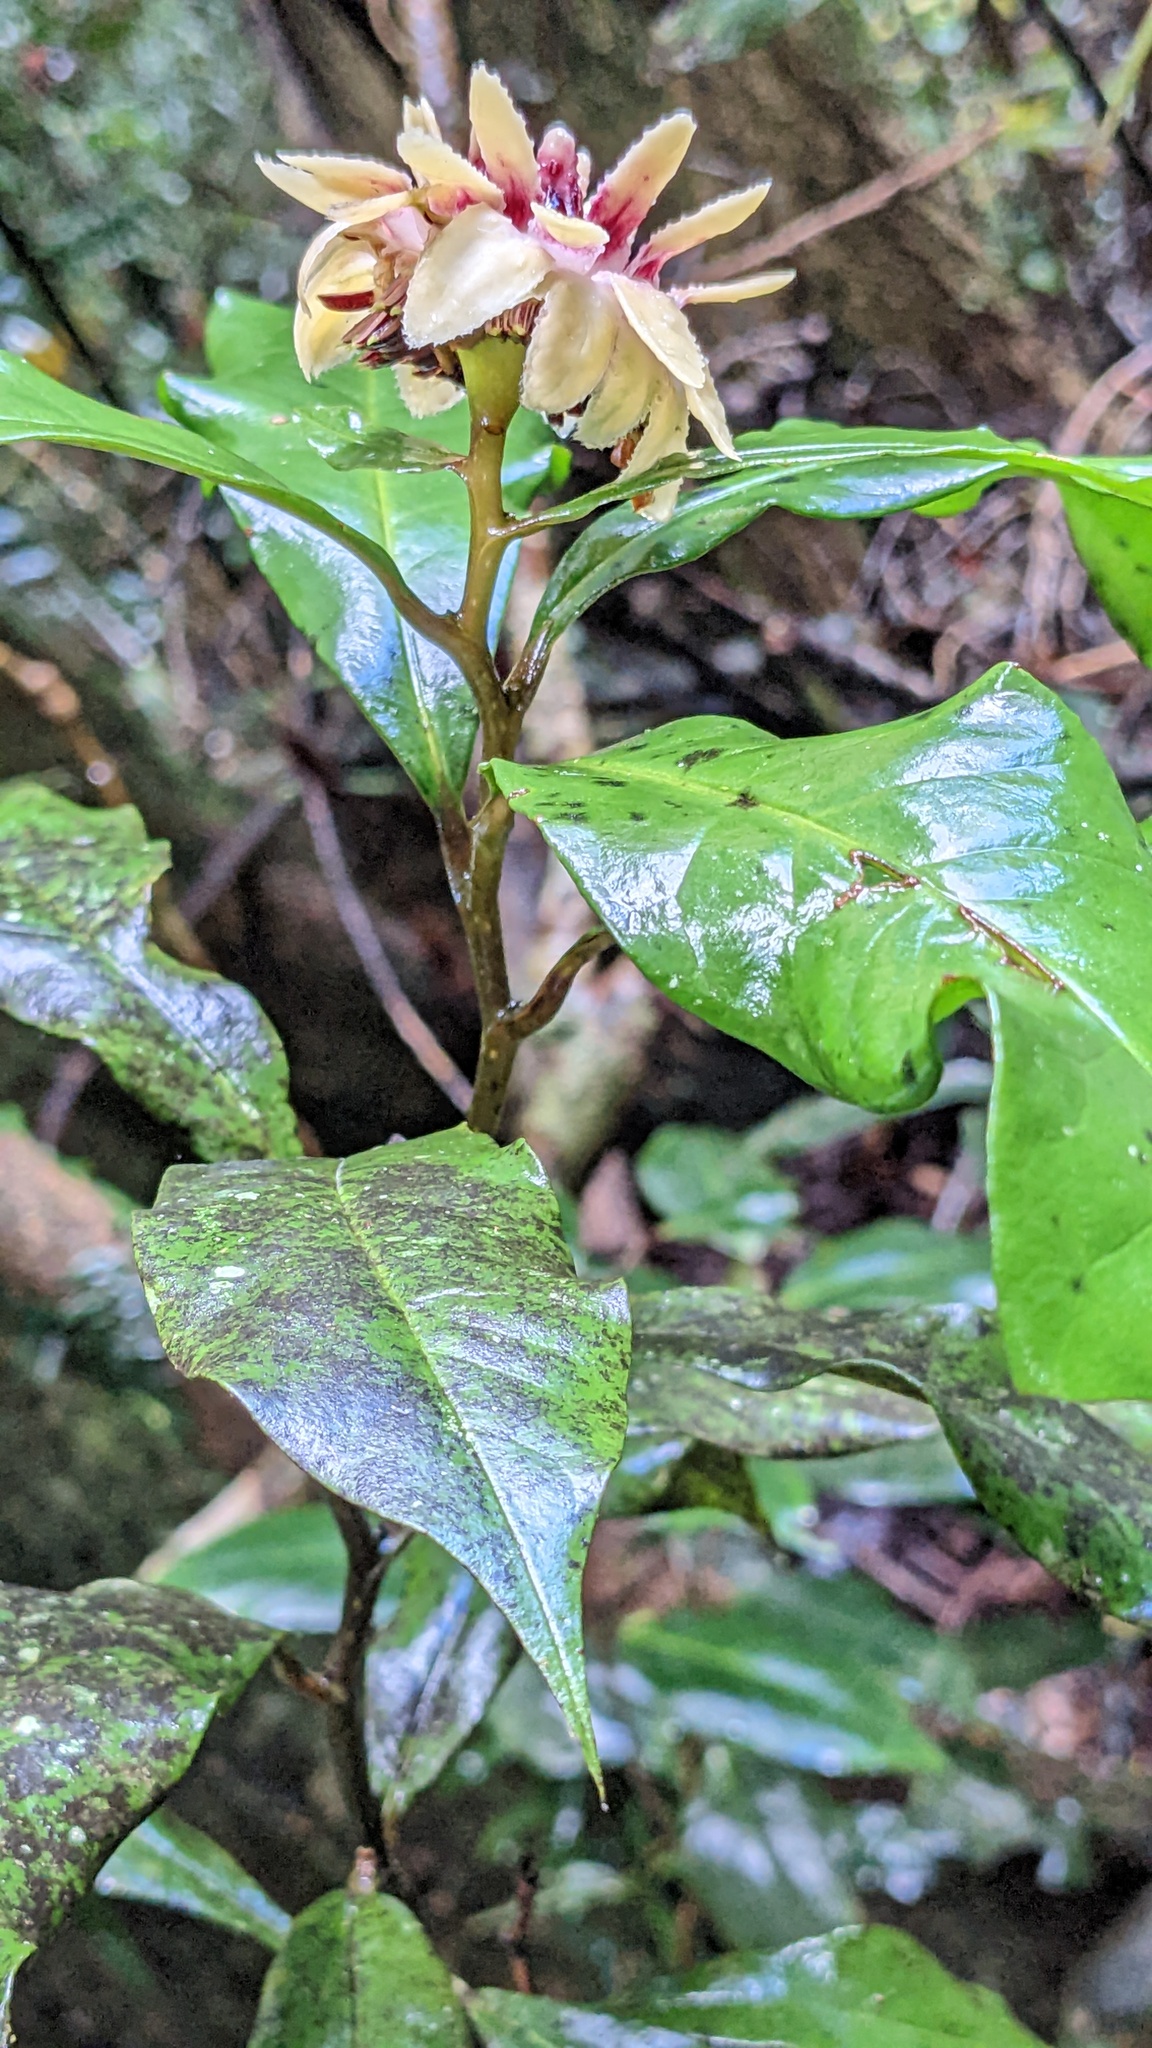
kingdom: Plantae
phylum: Tracheophyta
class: Magnoliopsida
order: Magnoliales
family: Eupomatiaceae
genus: Eupomatia
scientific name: Eupomatia bennettii
